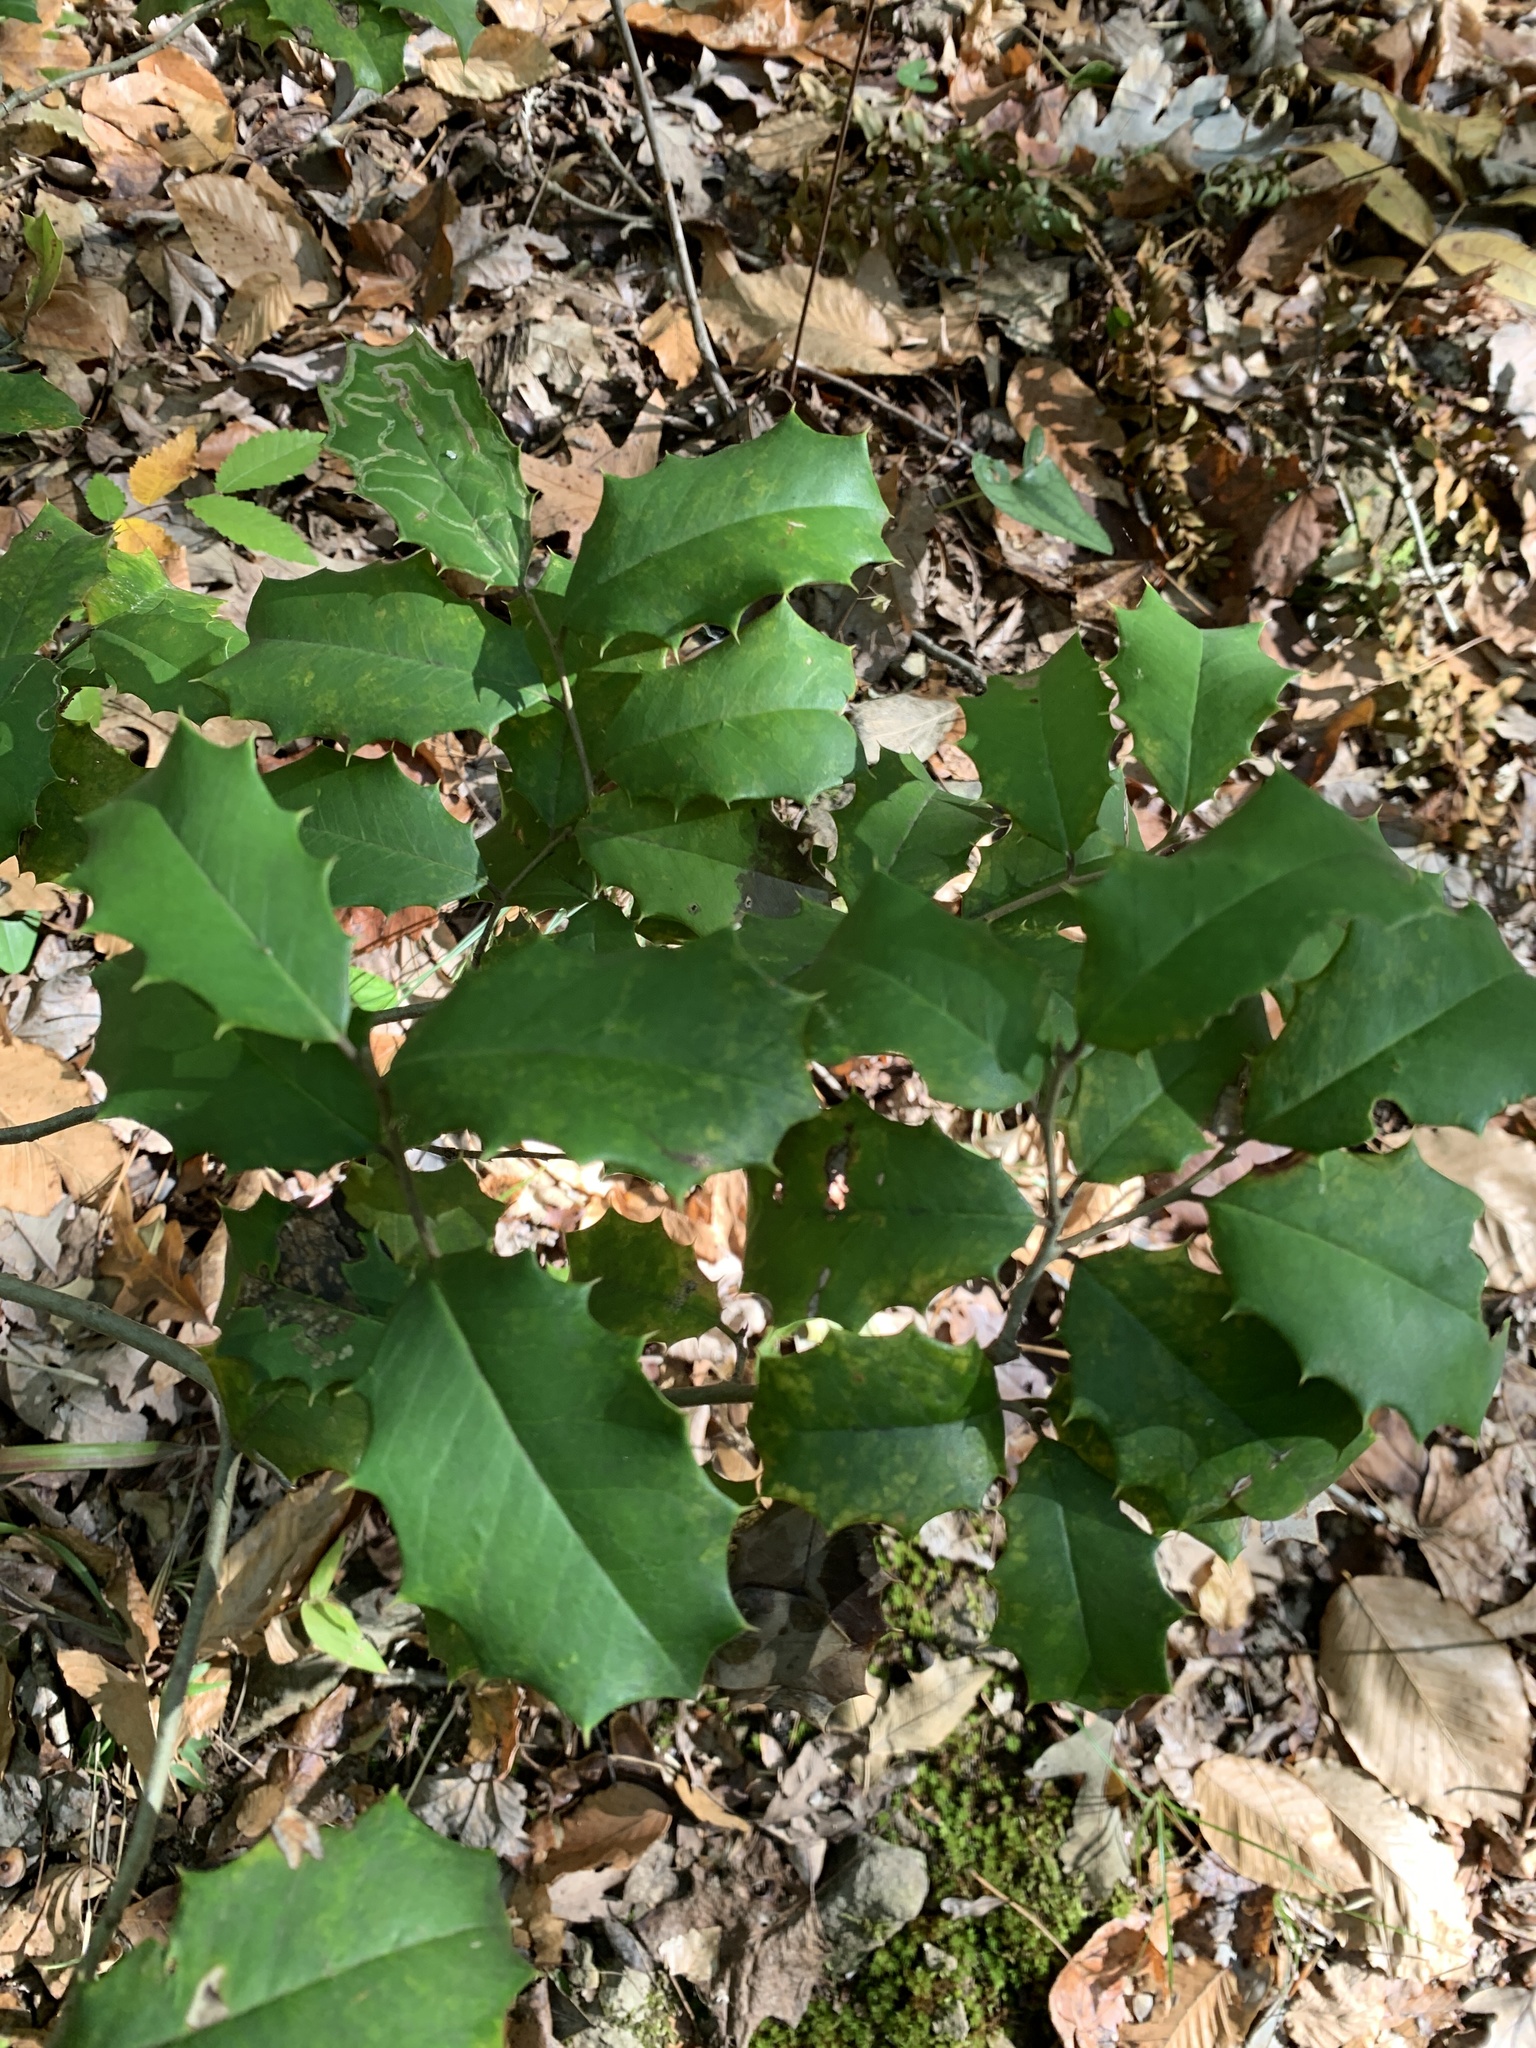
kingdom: Plantae
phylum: Tracheophyta
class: Magnoliopsida
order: Aquifoliales
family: Aquifoliaceae
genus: Ilex
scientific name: Ilex opaca
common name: American holly
